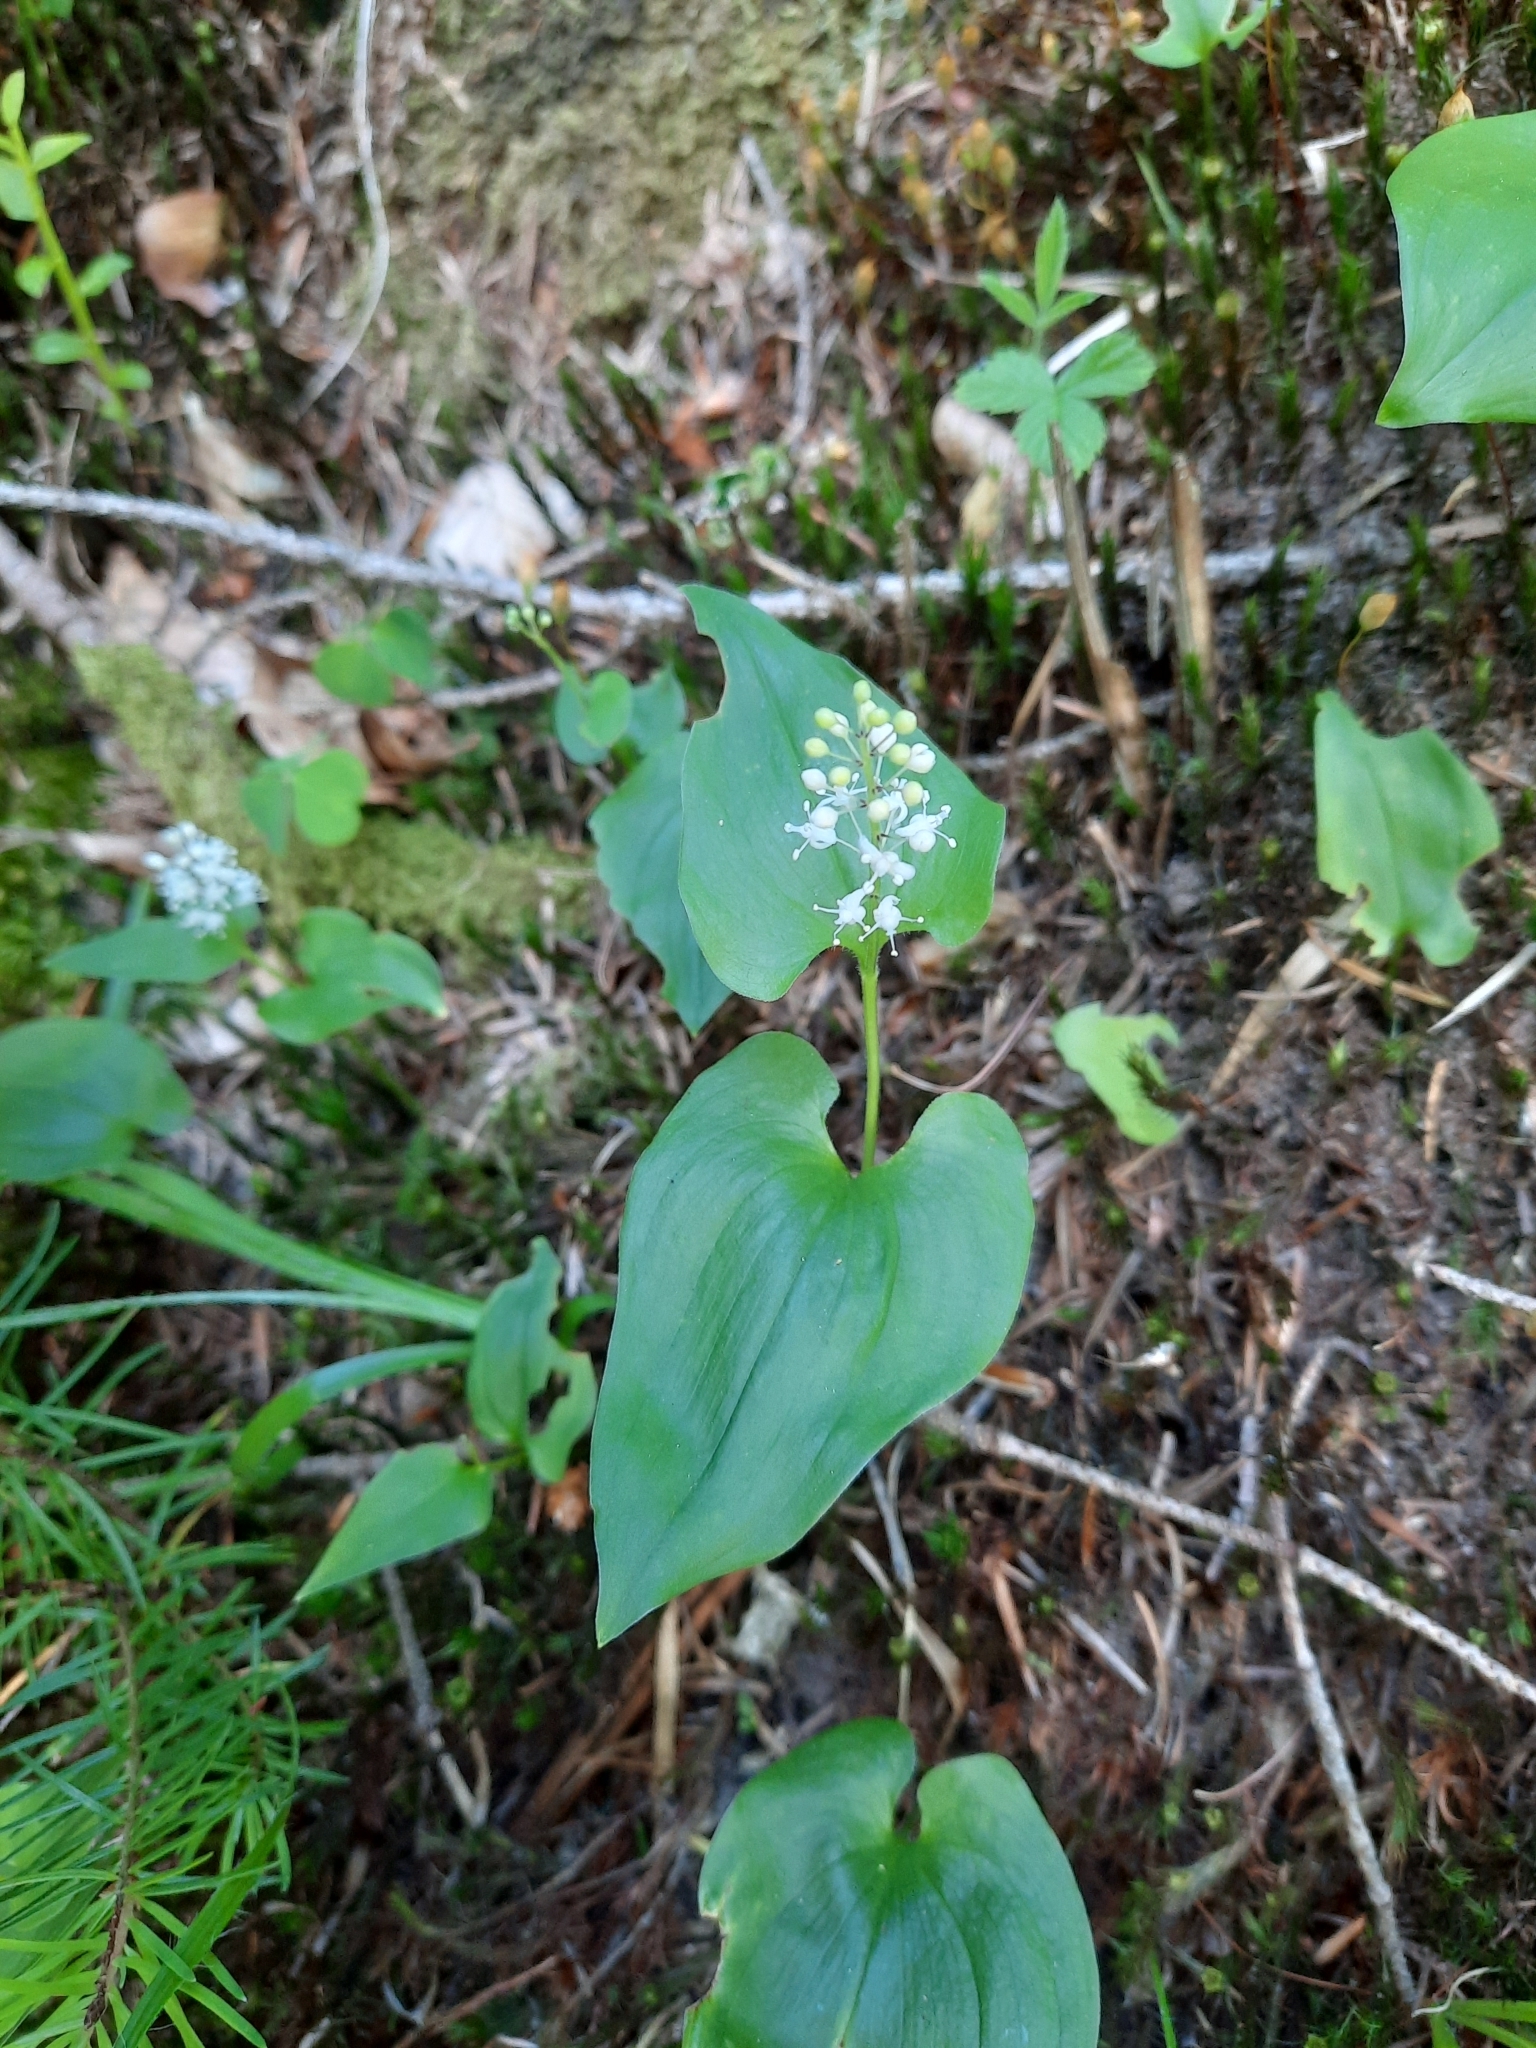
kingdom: Plantae
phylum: Tracheophyta
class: Liliopsida
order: Asparagales
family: Asparagaceae
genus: Maianthemum
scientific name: Maianthemum bifolium
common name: May lily
